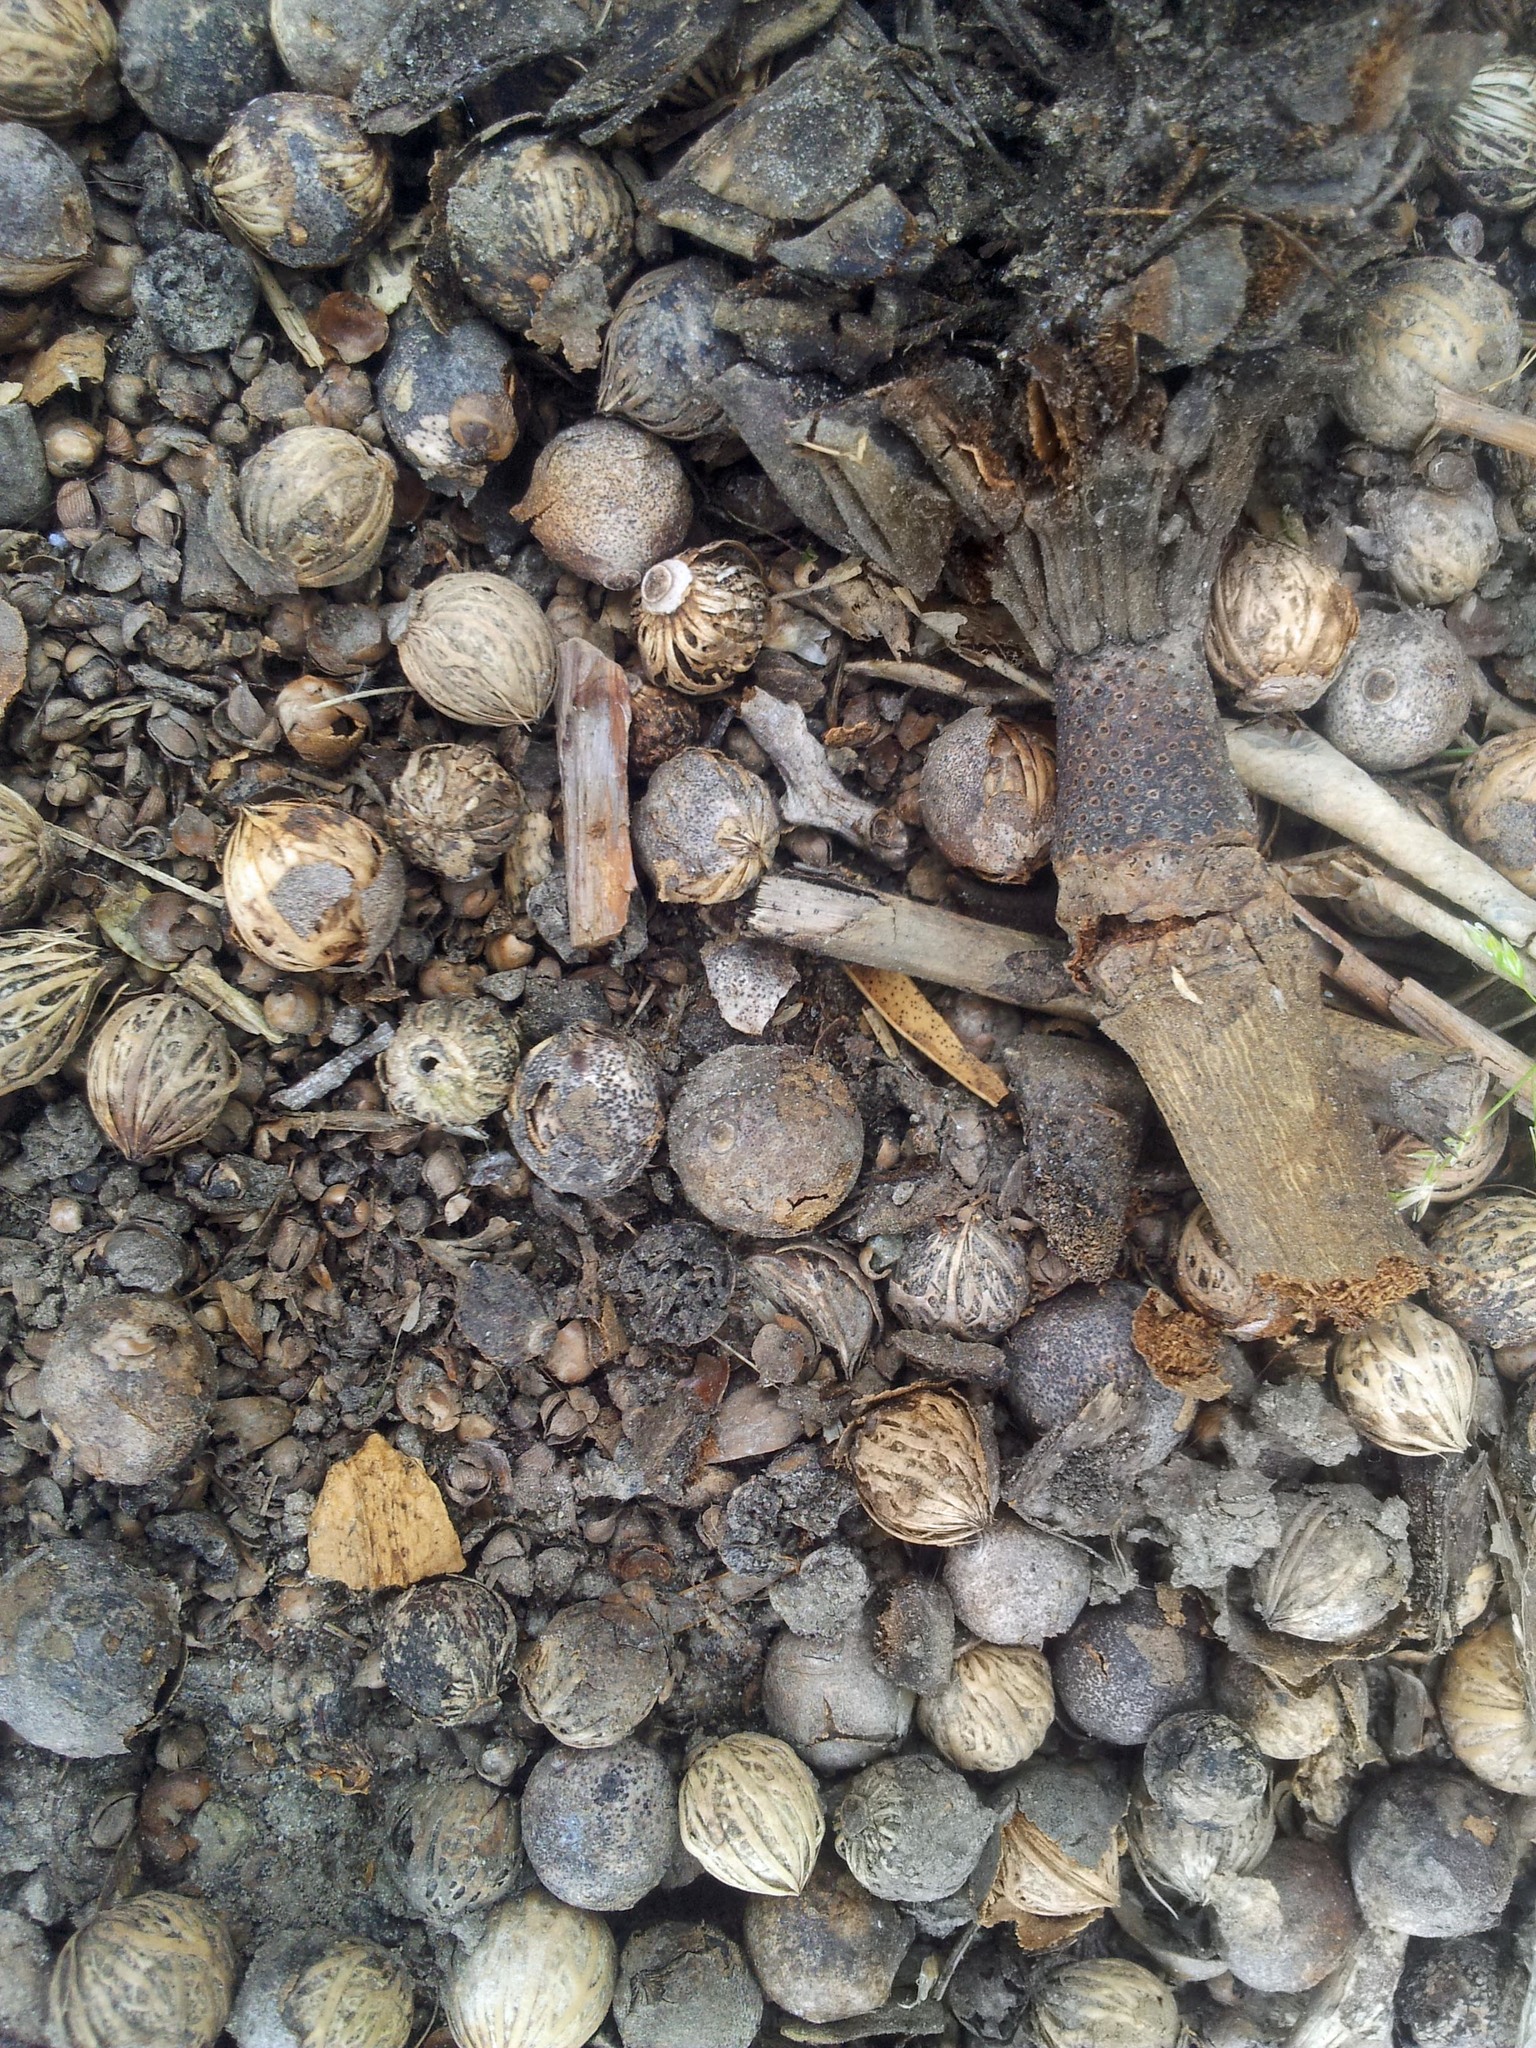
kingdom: Plantae
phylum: Tracheophyta
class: Liliopsida
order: Arecales
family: Arecaceae
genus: Archontophoenix
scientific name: Archontophoenix cunninghamiana
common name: Piccabeen bangalow palm
